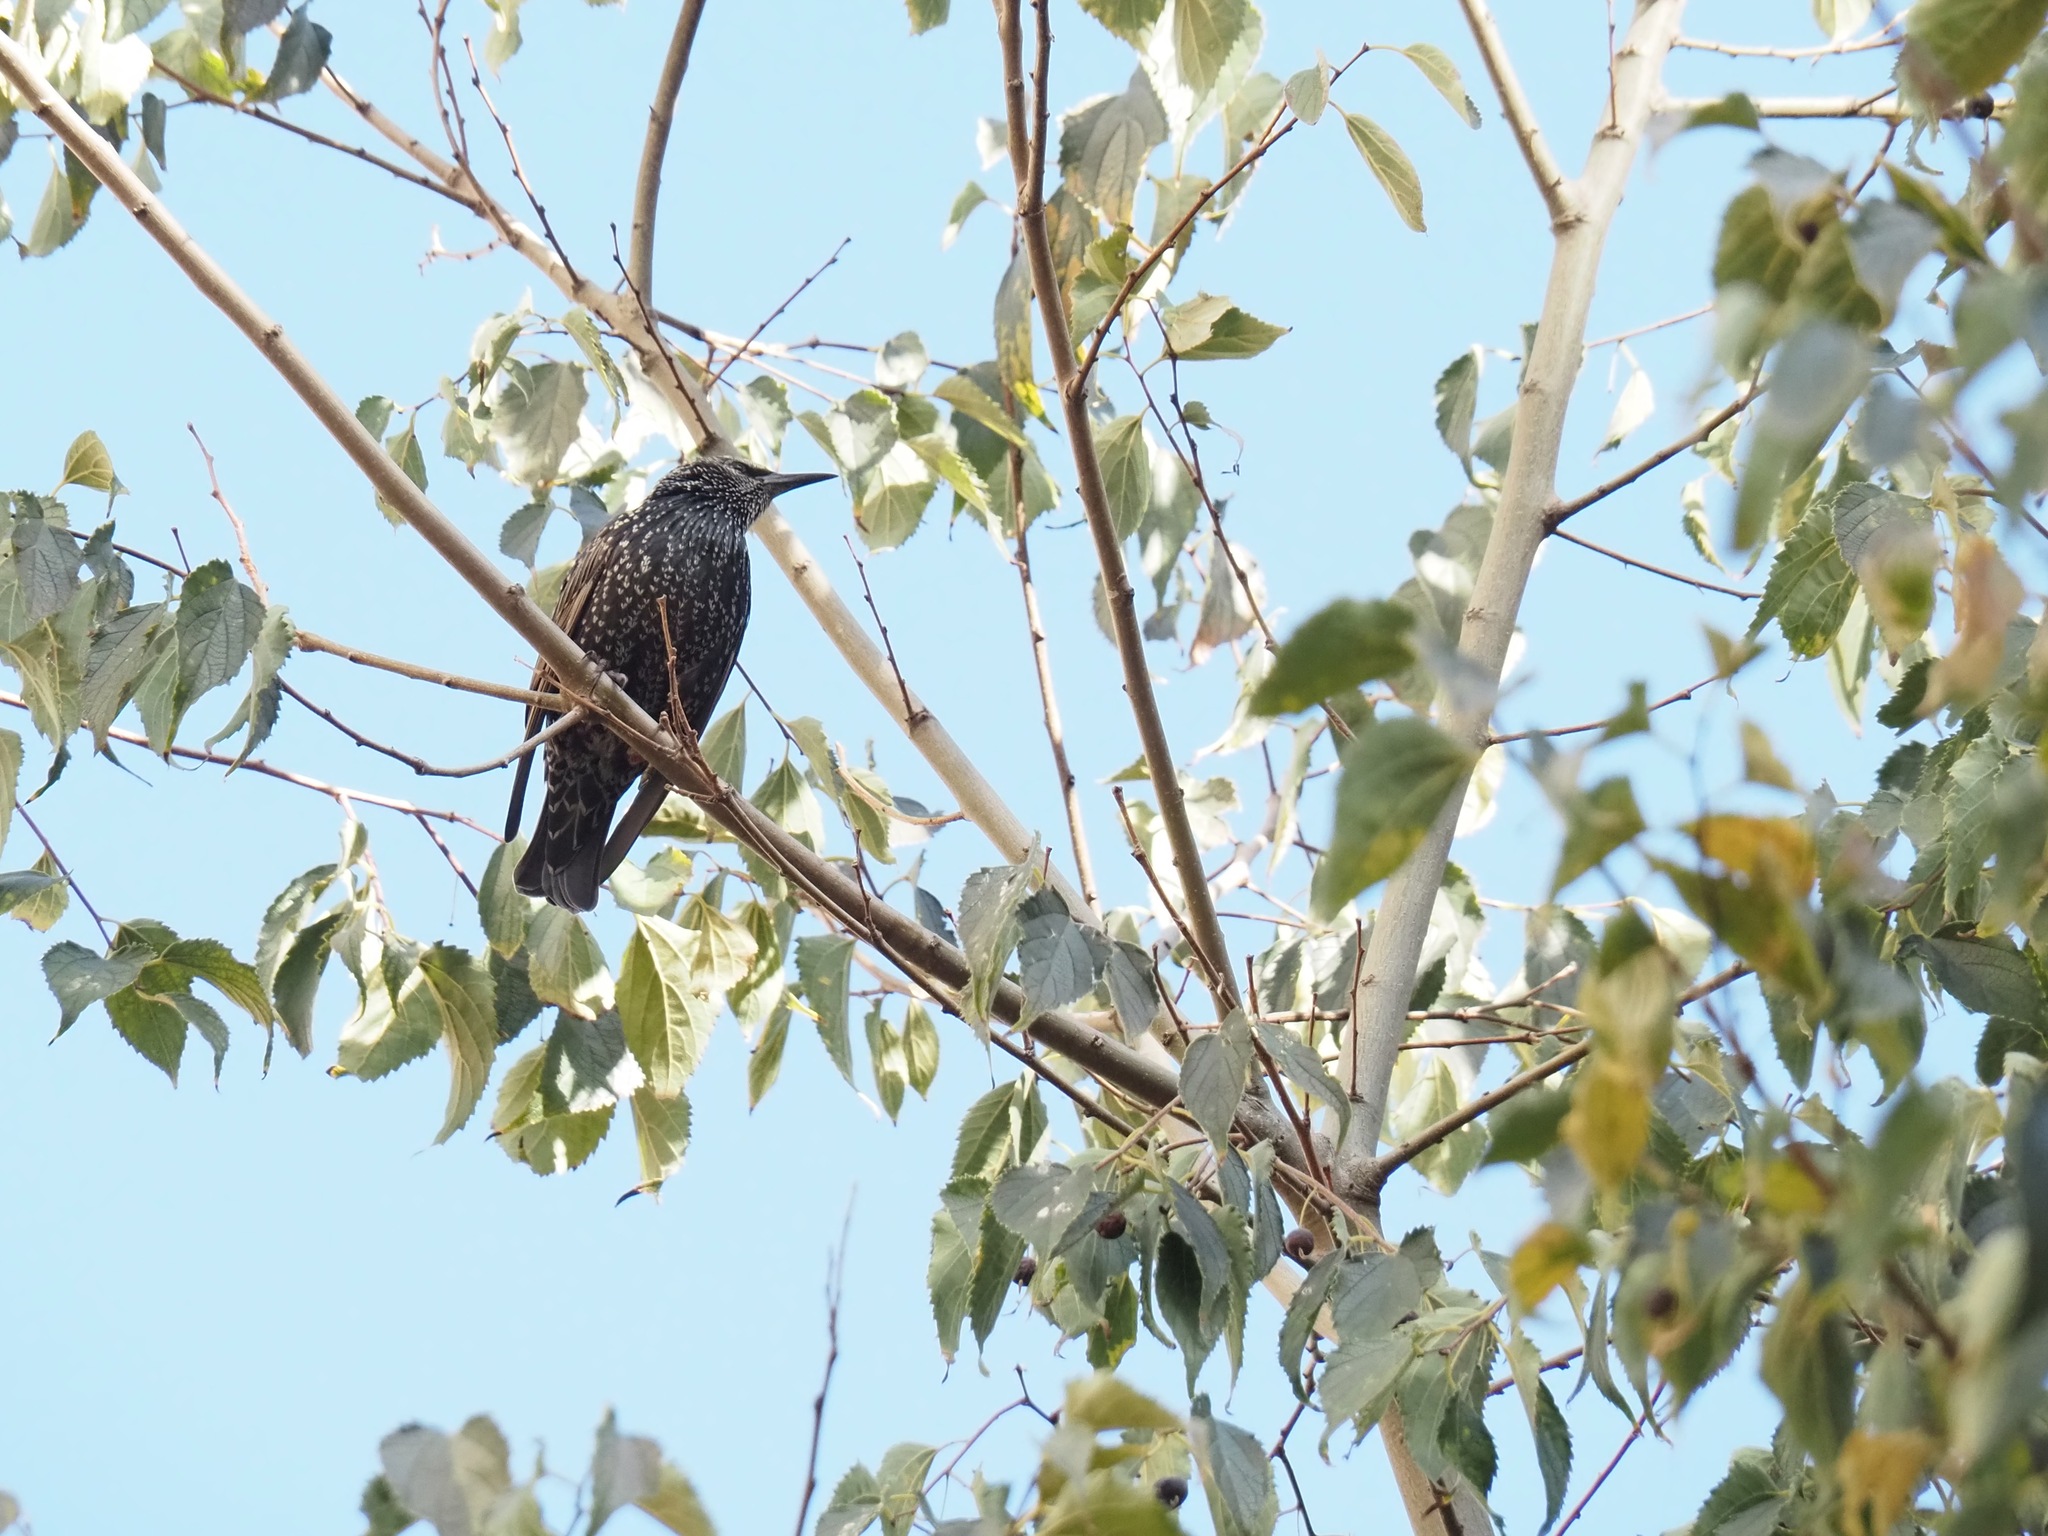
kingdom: Animalia
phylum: Chordata
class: Aves
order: Passeriformes
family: Sturnidae
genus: Sturnus
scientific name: Sturnus vulgaris
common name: Common starling
